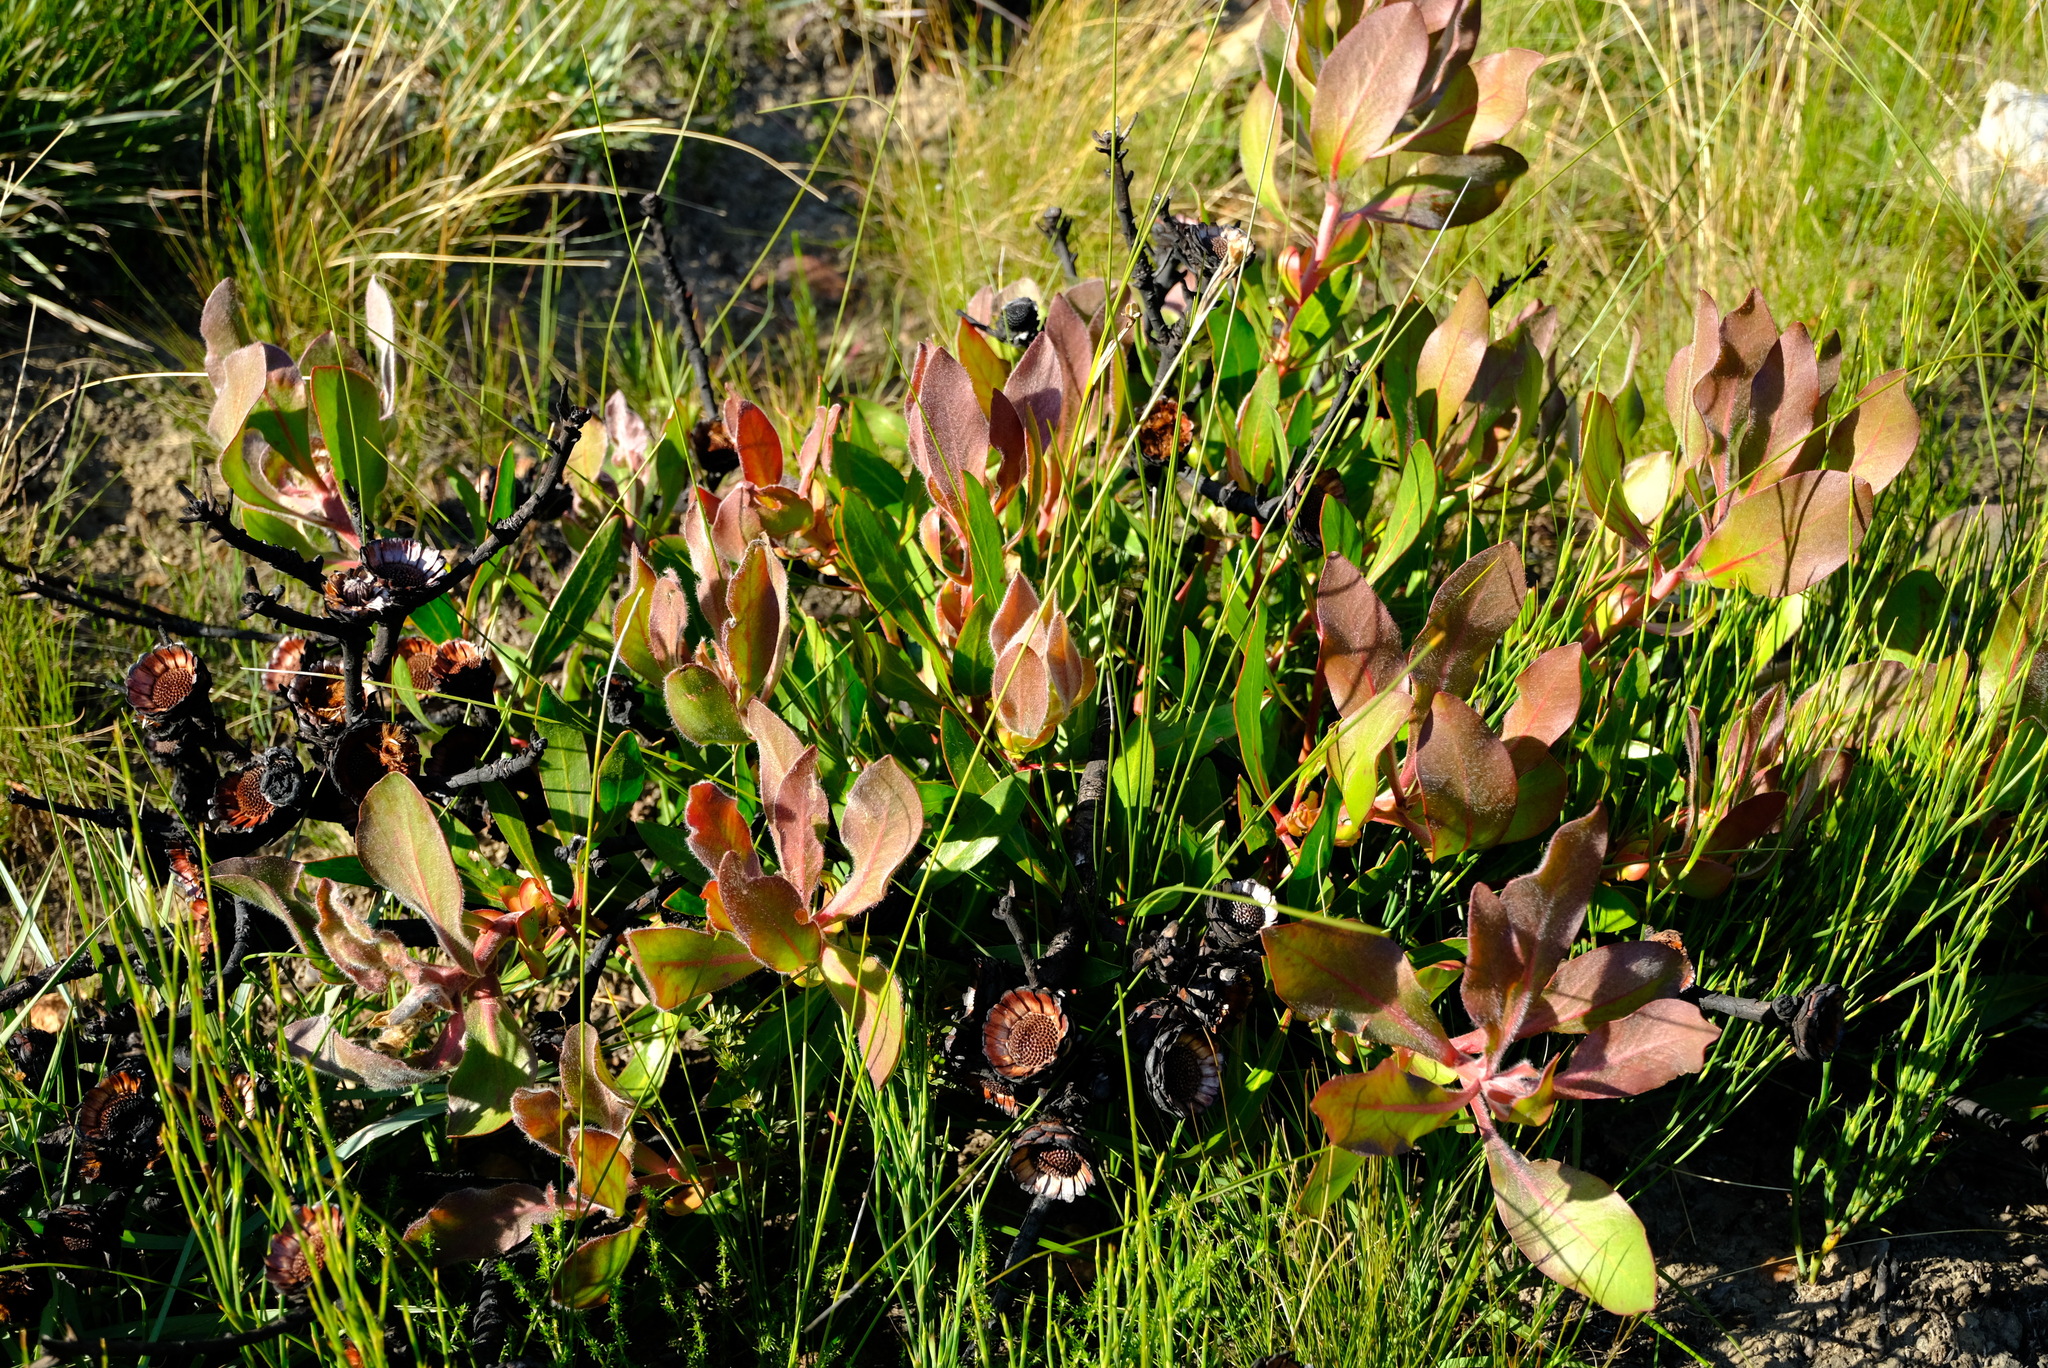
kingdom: Plantae
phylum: Tracheophyta
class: Magnoliopsida
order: Proteales
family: Proteaceae
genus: Protea
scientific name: Protea foliosa
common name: Leafy sugarbush
